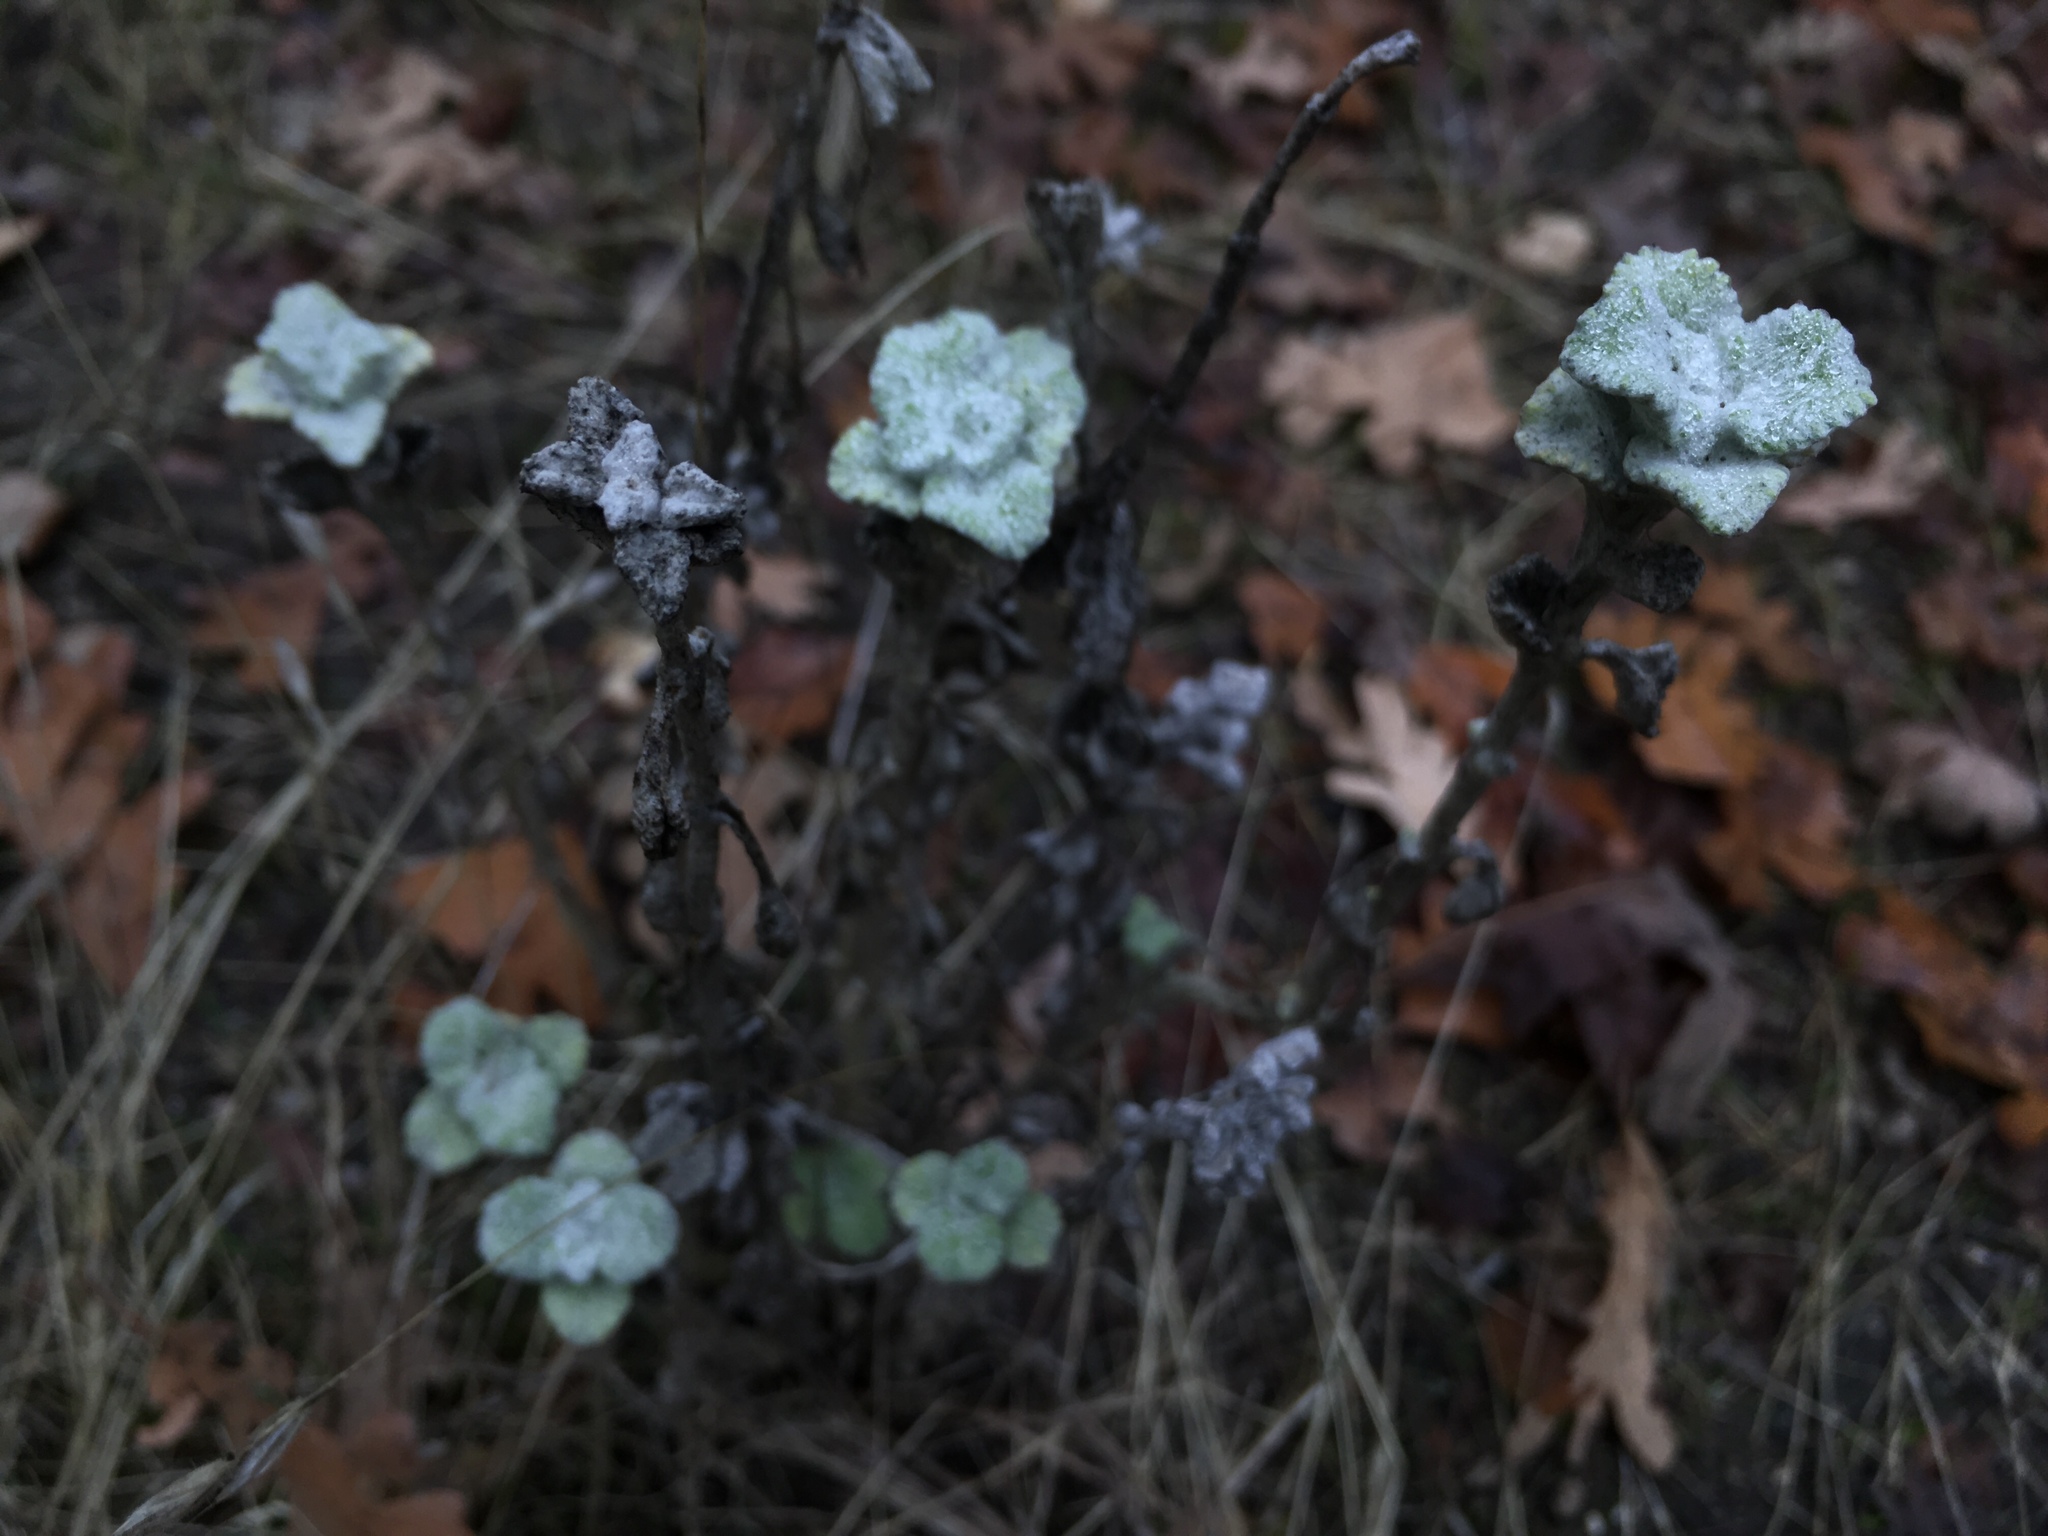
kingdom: Plantae
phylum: Tracheophyta
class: Magnoliopsida
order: Lamiales
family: Lamiaceae
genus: Marrubium
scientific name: Marrubium vulgare
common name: Horehound
